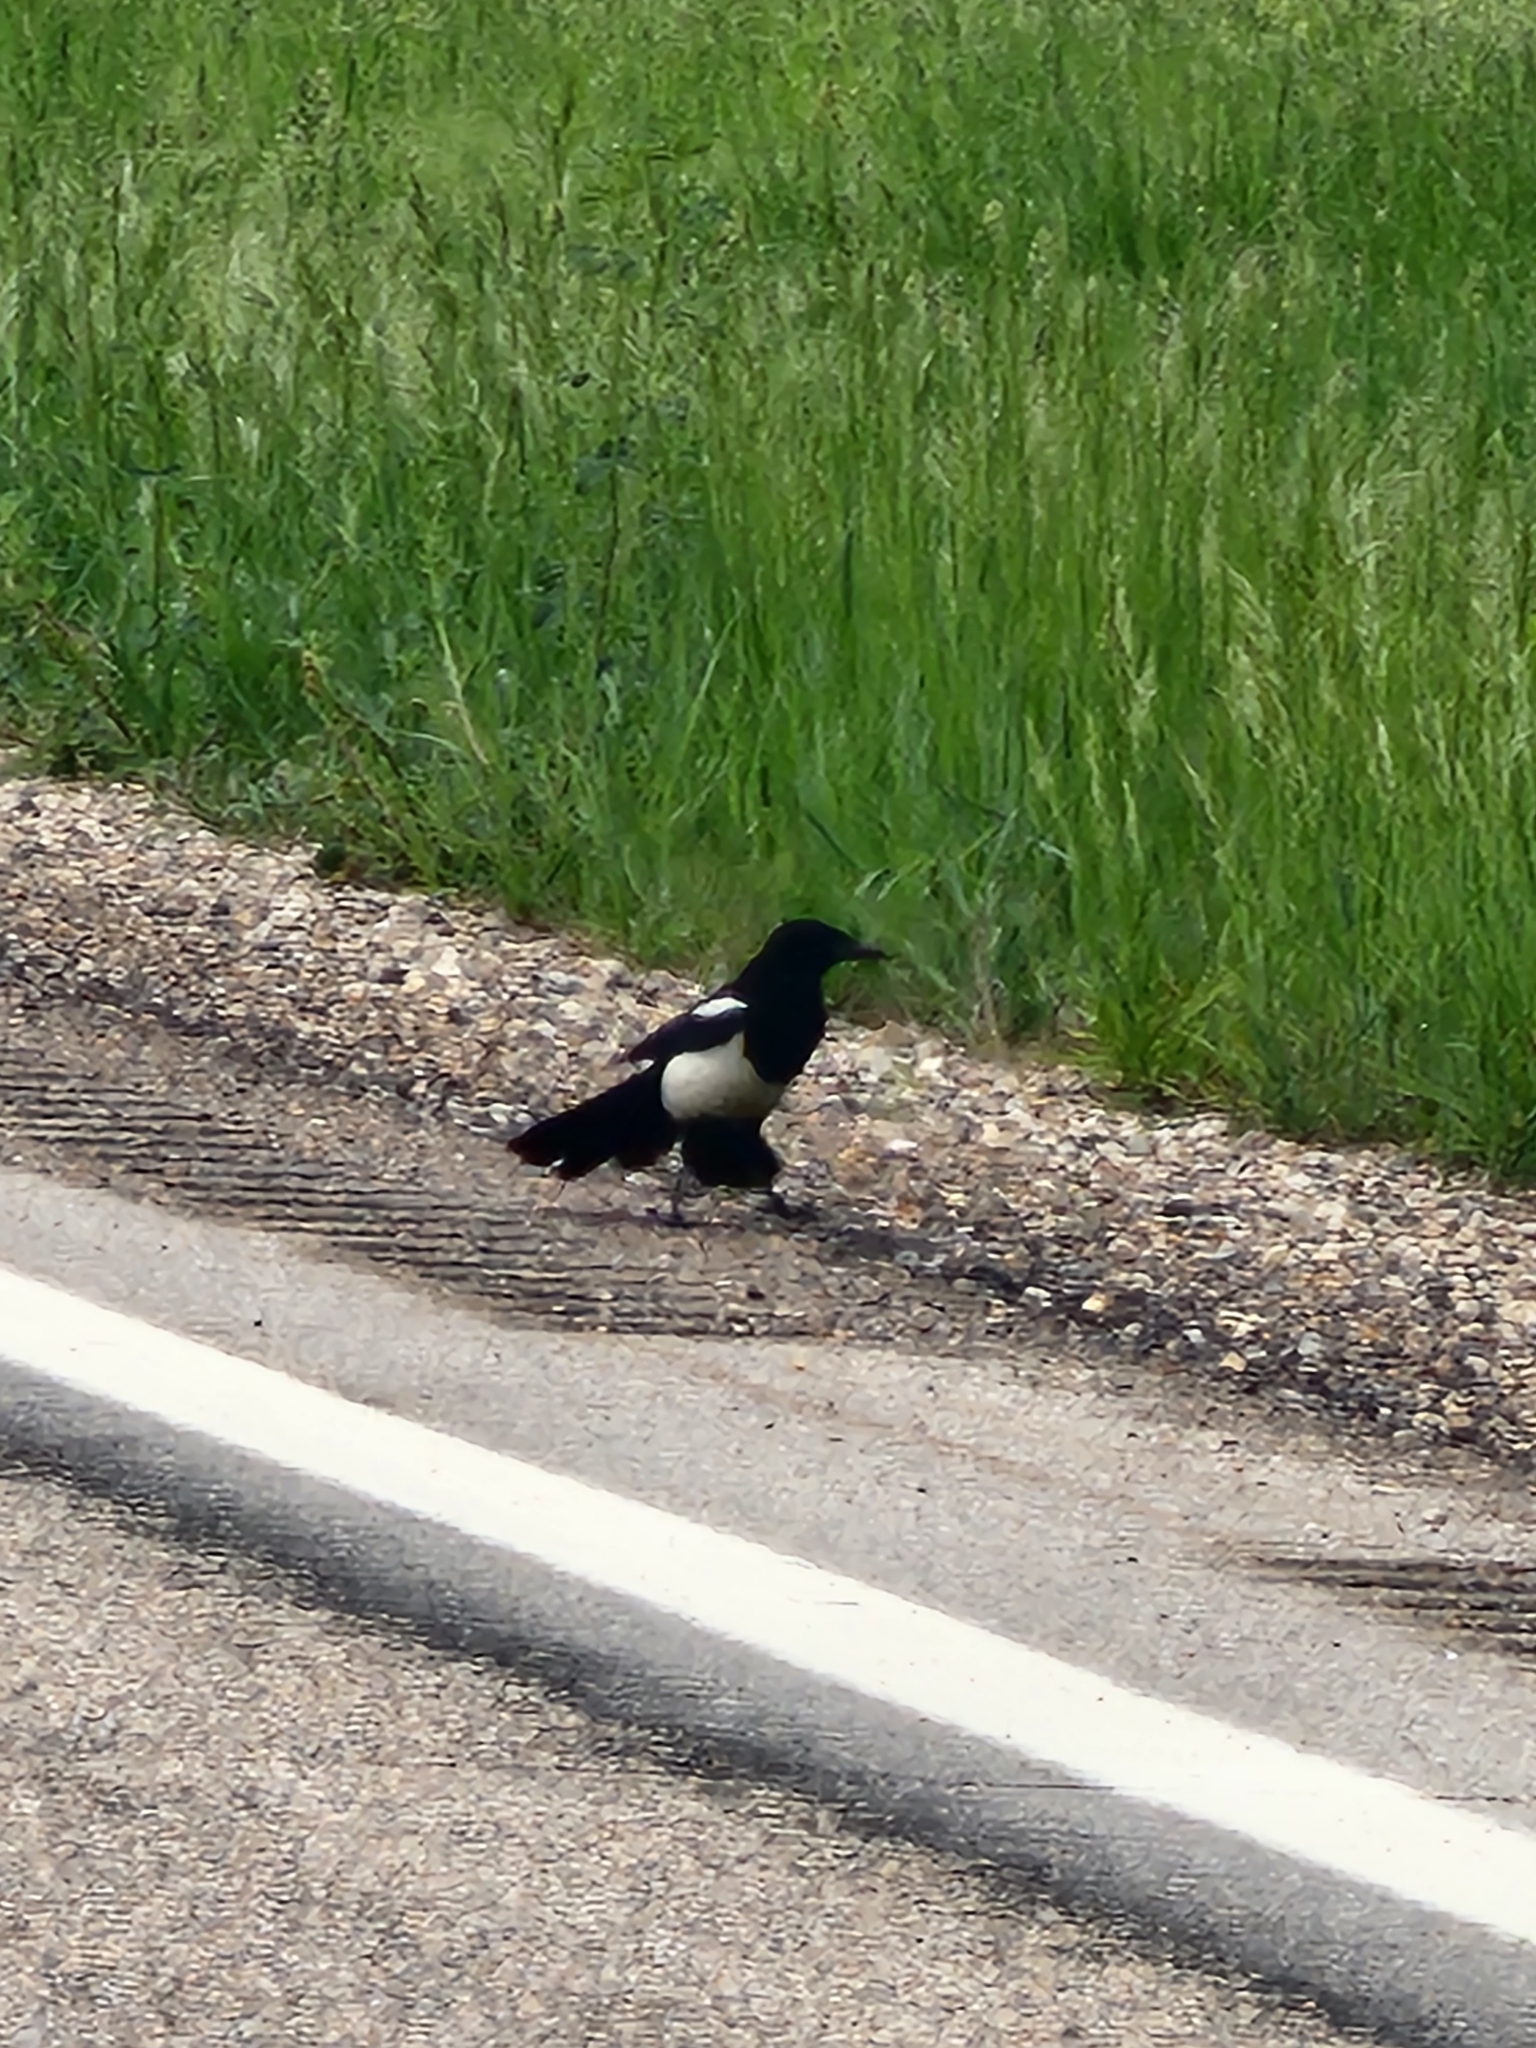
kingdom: Animalia
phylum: Chordata
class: Aves
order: Passeriformes
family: Corvidae
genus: Pica
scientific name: Pica hudsonia
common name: Black-billed magpie
